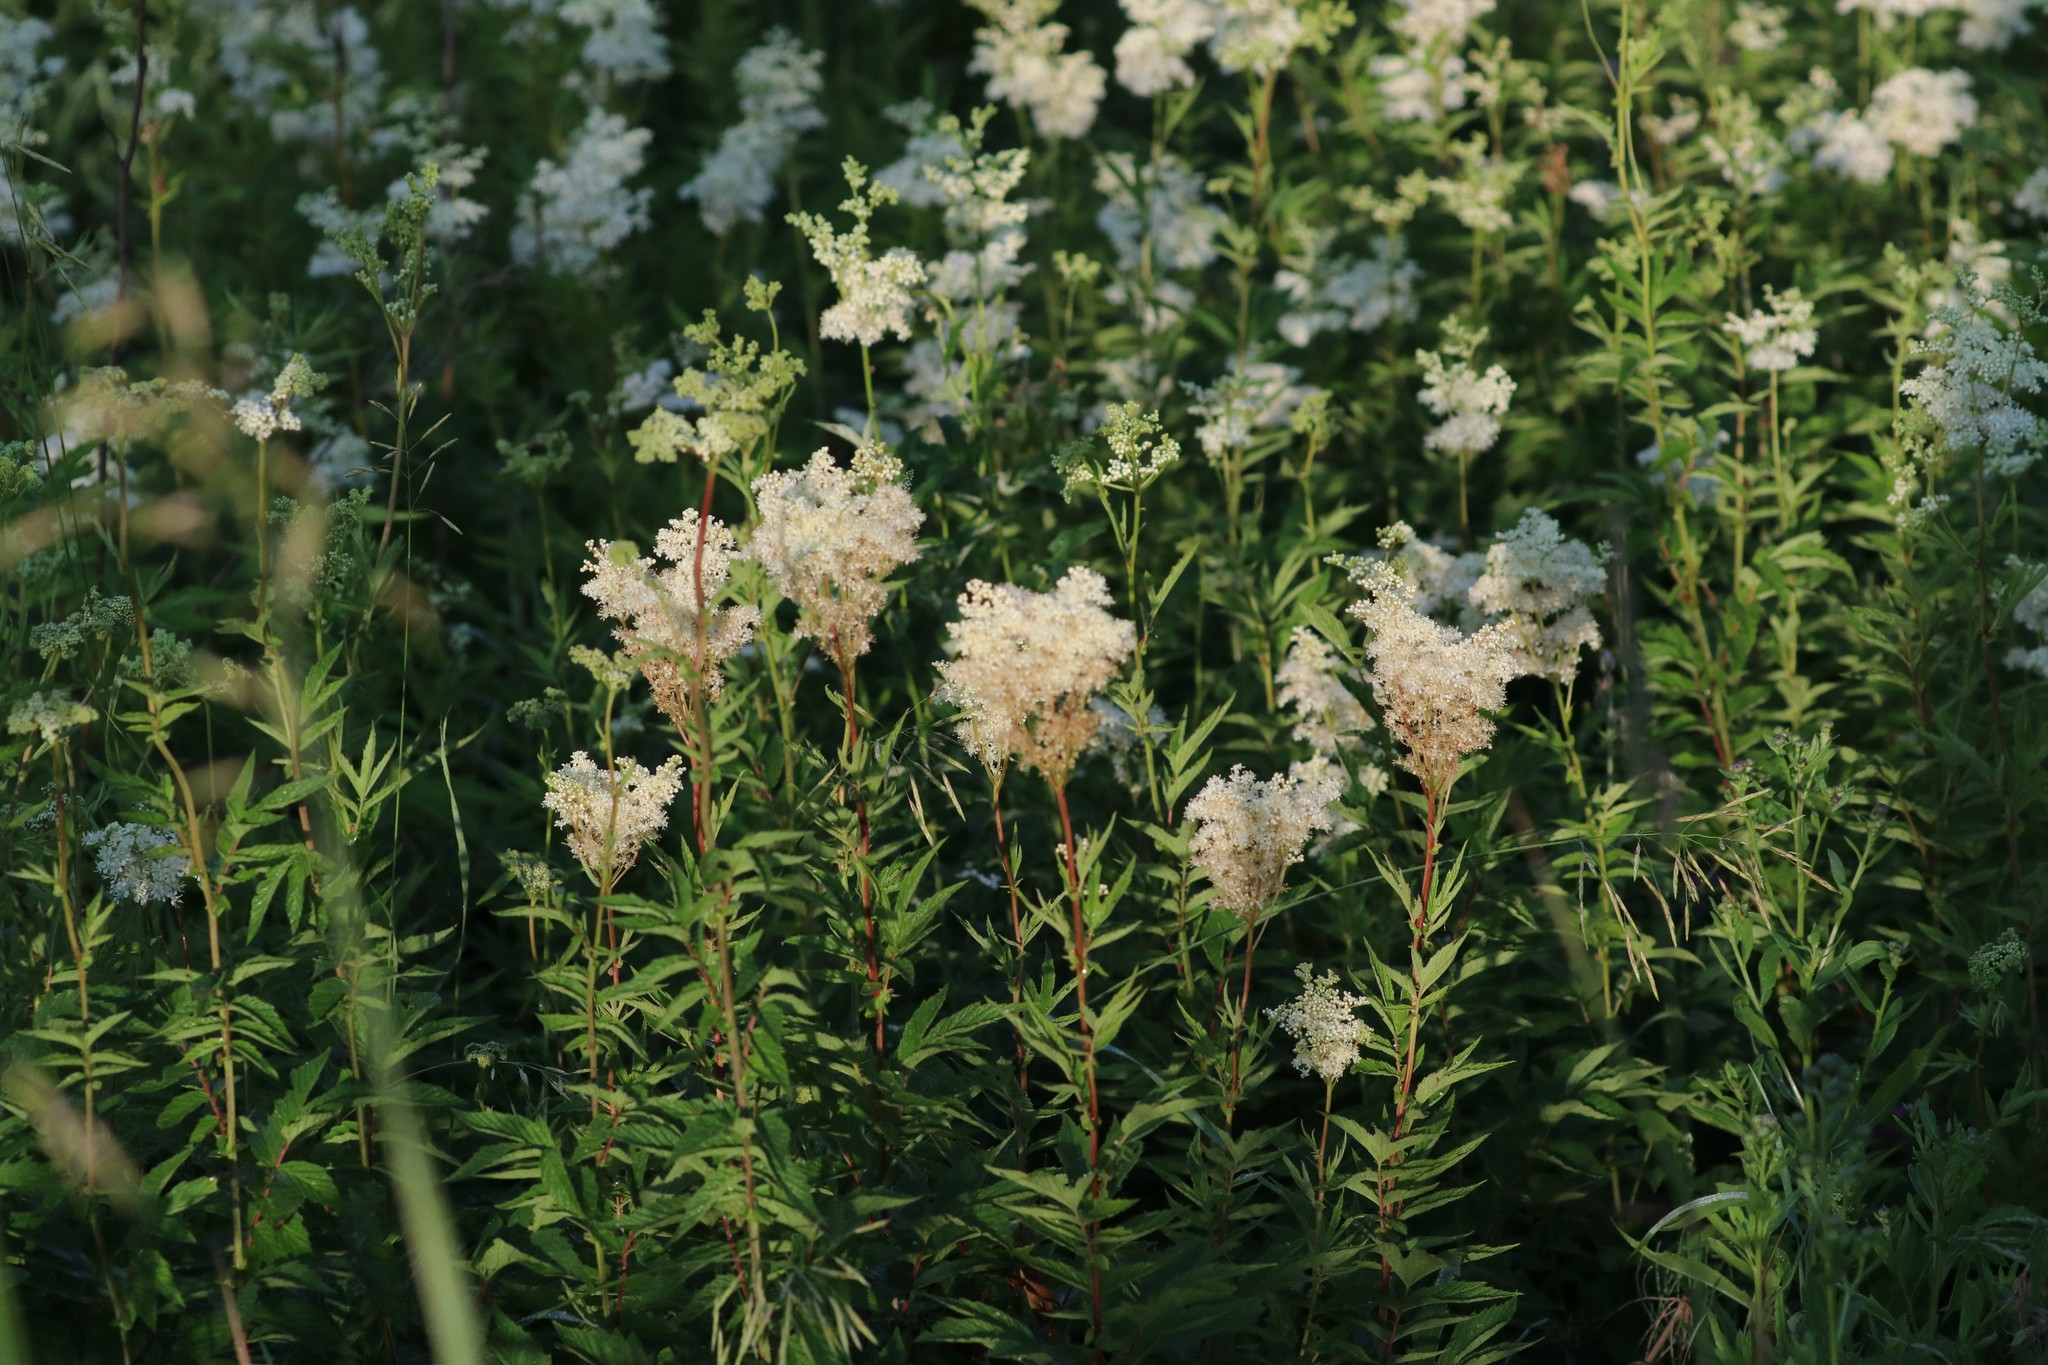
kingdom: Plantae
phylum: Tracheophyta
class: Magnoliopsida
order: Rosales
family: Rosaceae
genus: Filipendula
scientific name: Filipendula ulmaria
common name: Meadowsweet
